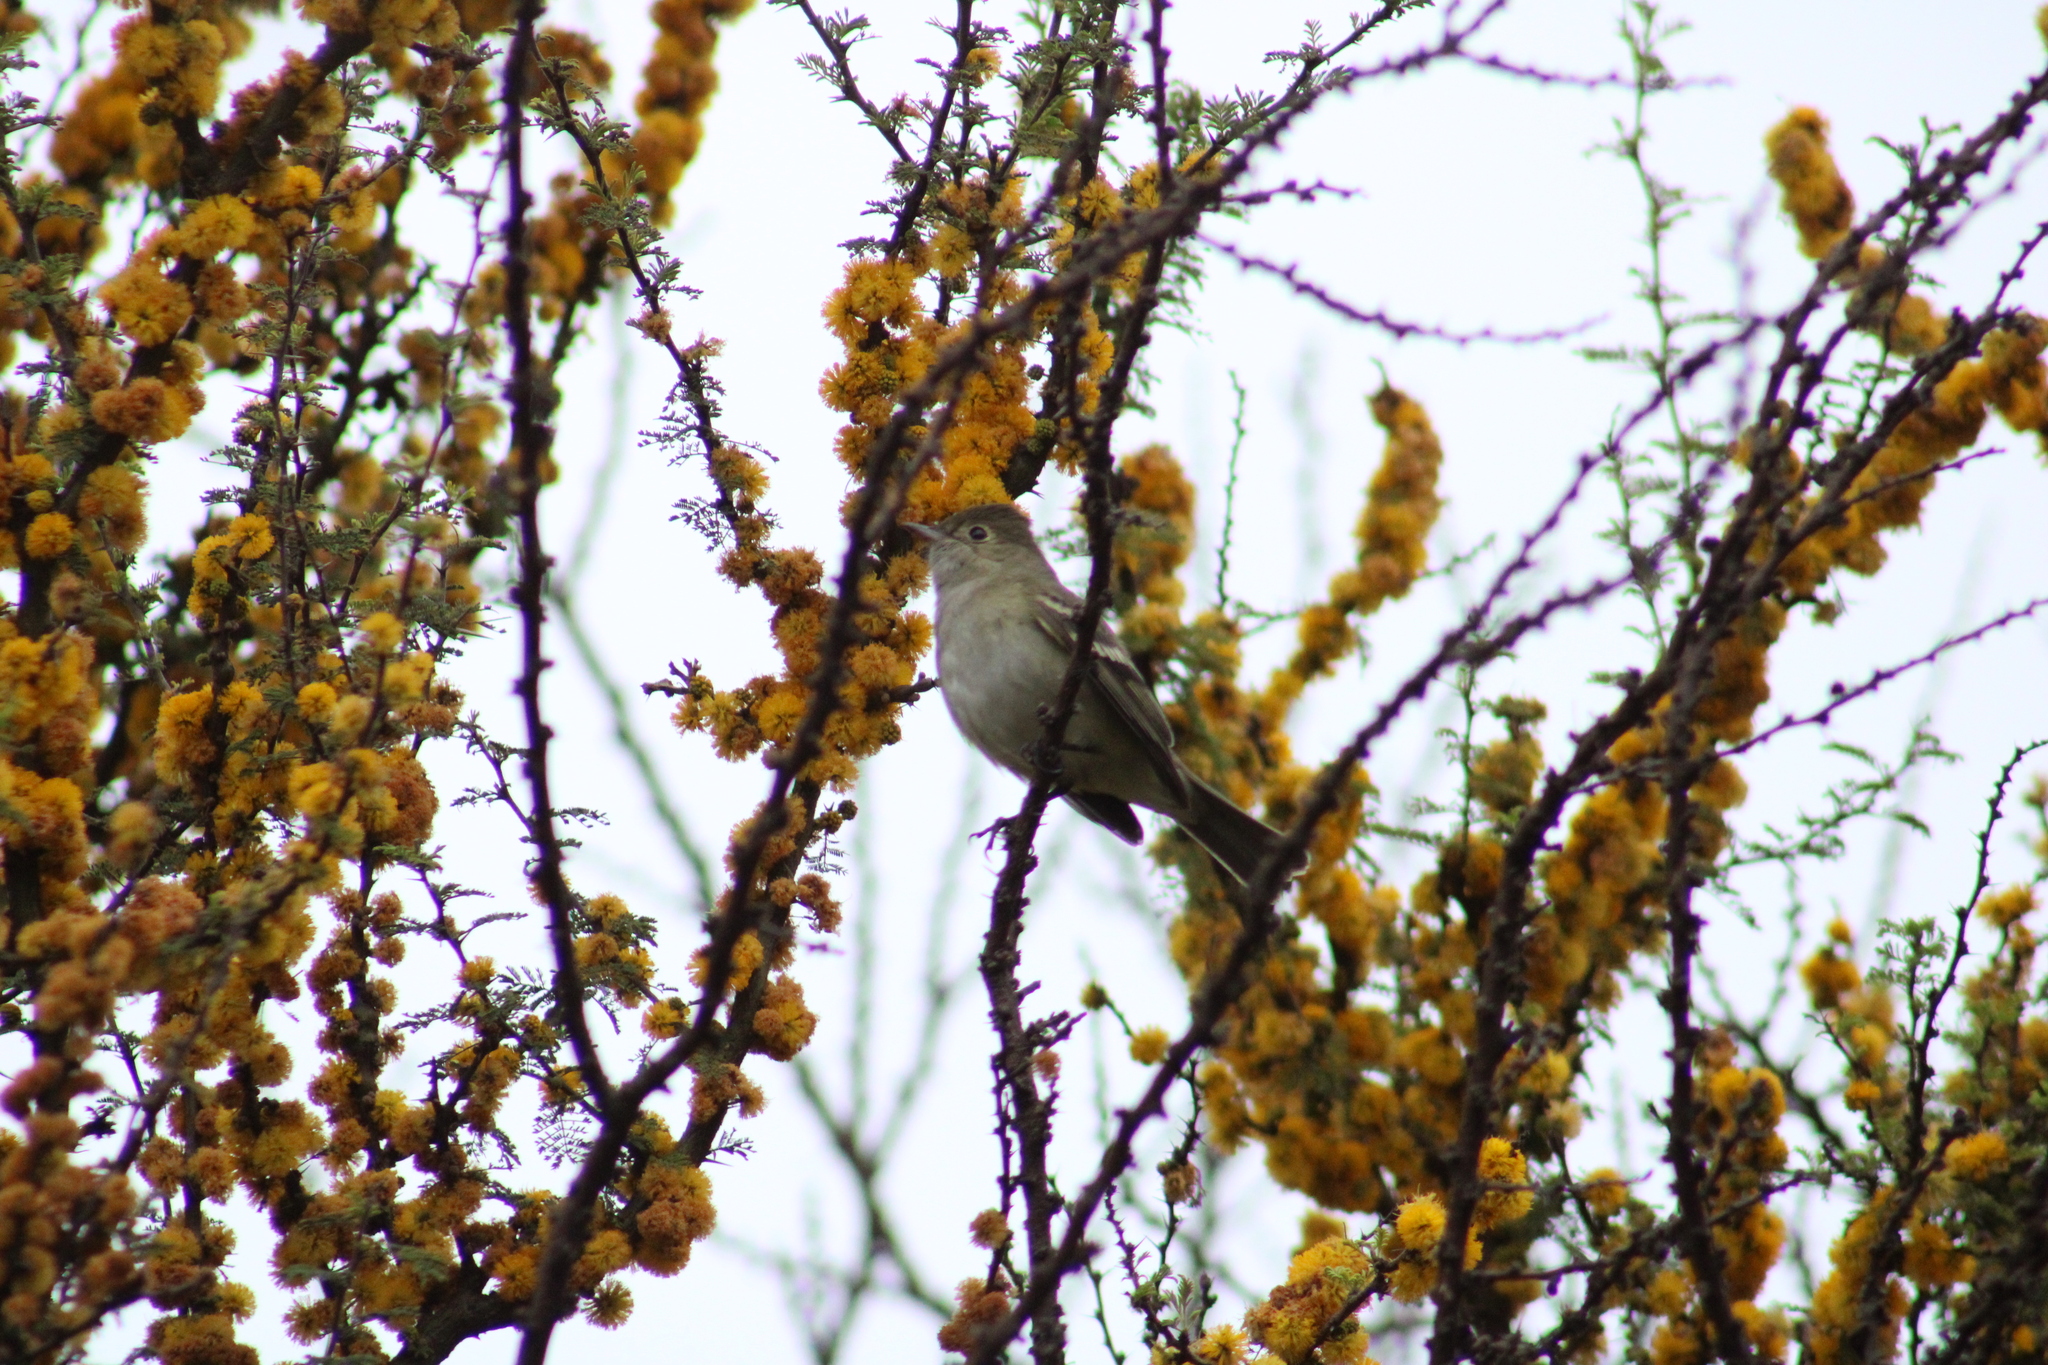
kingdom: Animalia
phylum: Chordata
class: Aves
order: Passeriformes
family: Tyrannidae
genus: Elaenia
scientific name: Elaenia albiceps
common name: White-crested elaenia
